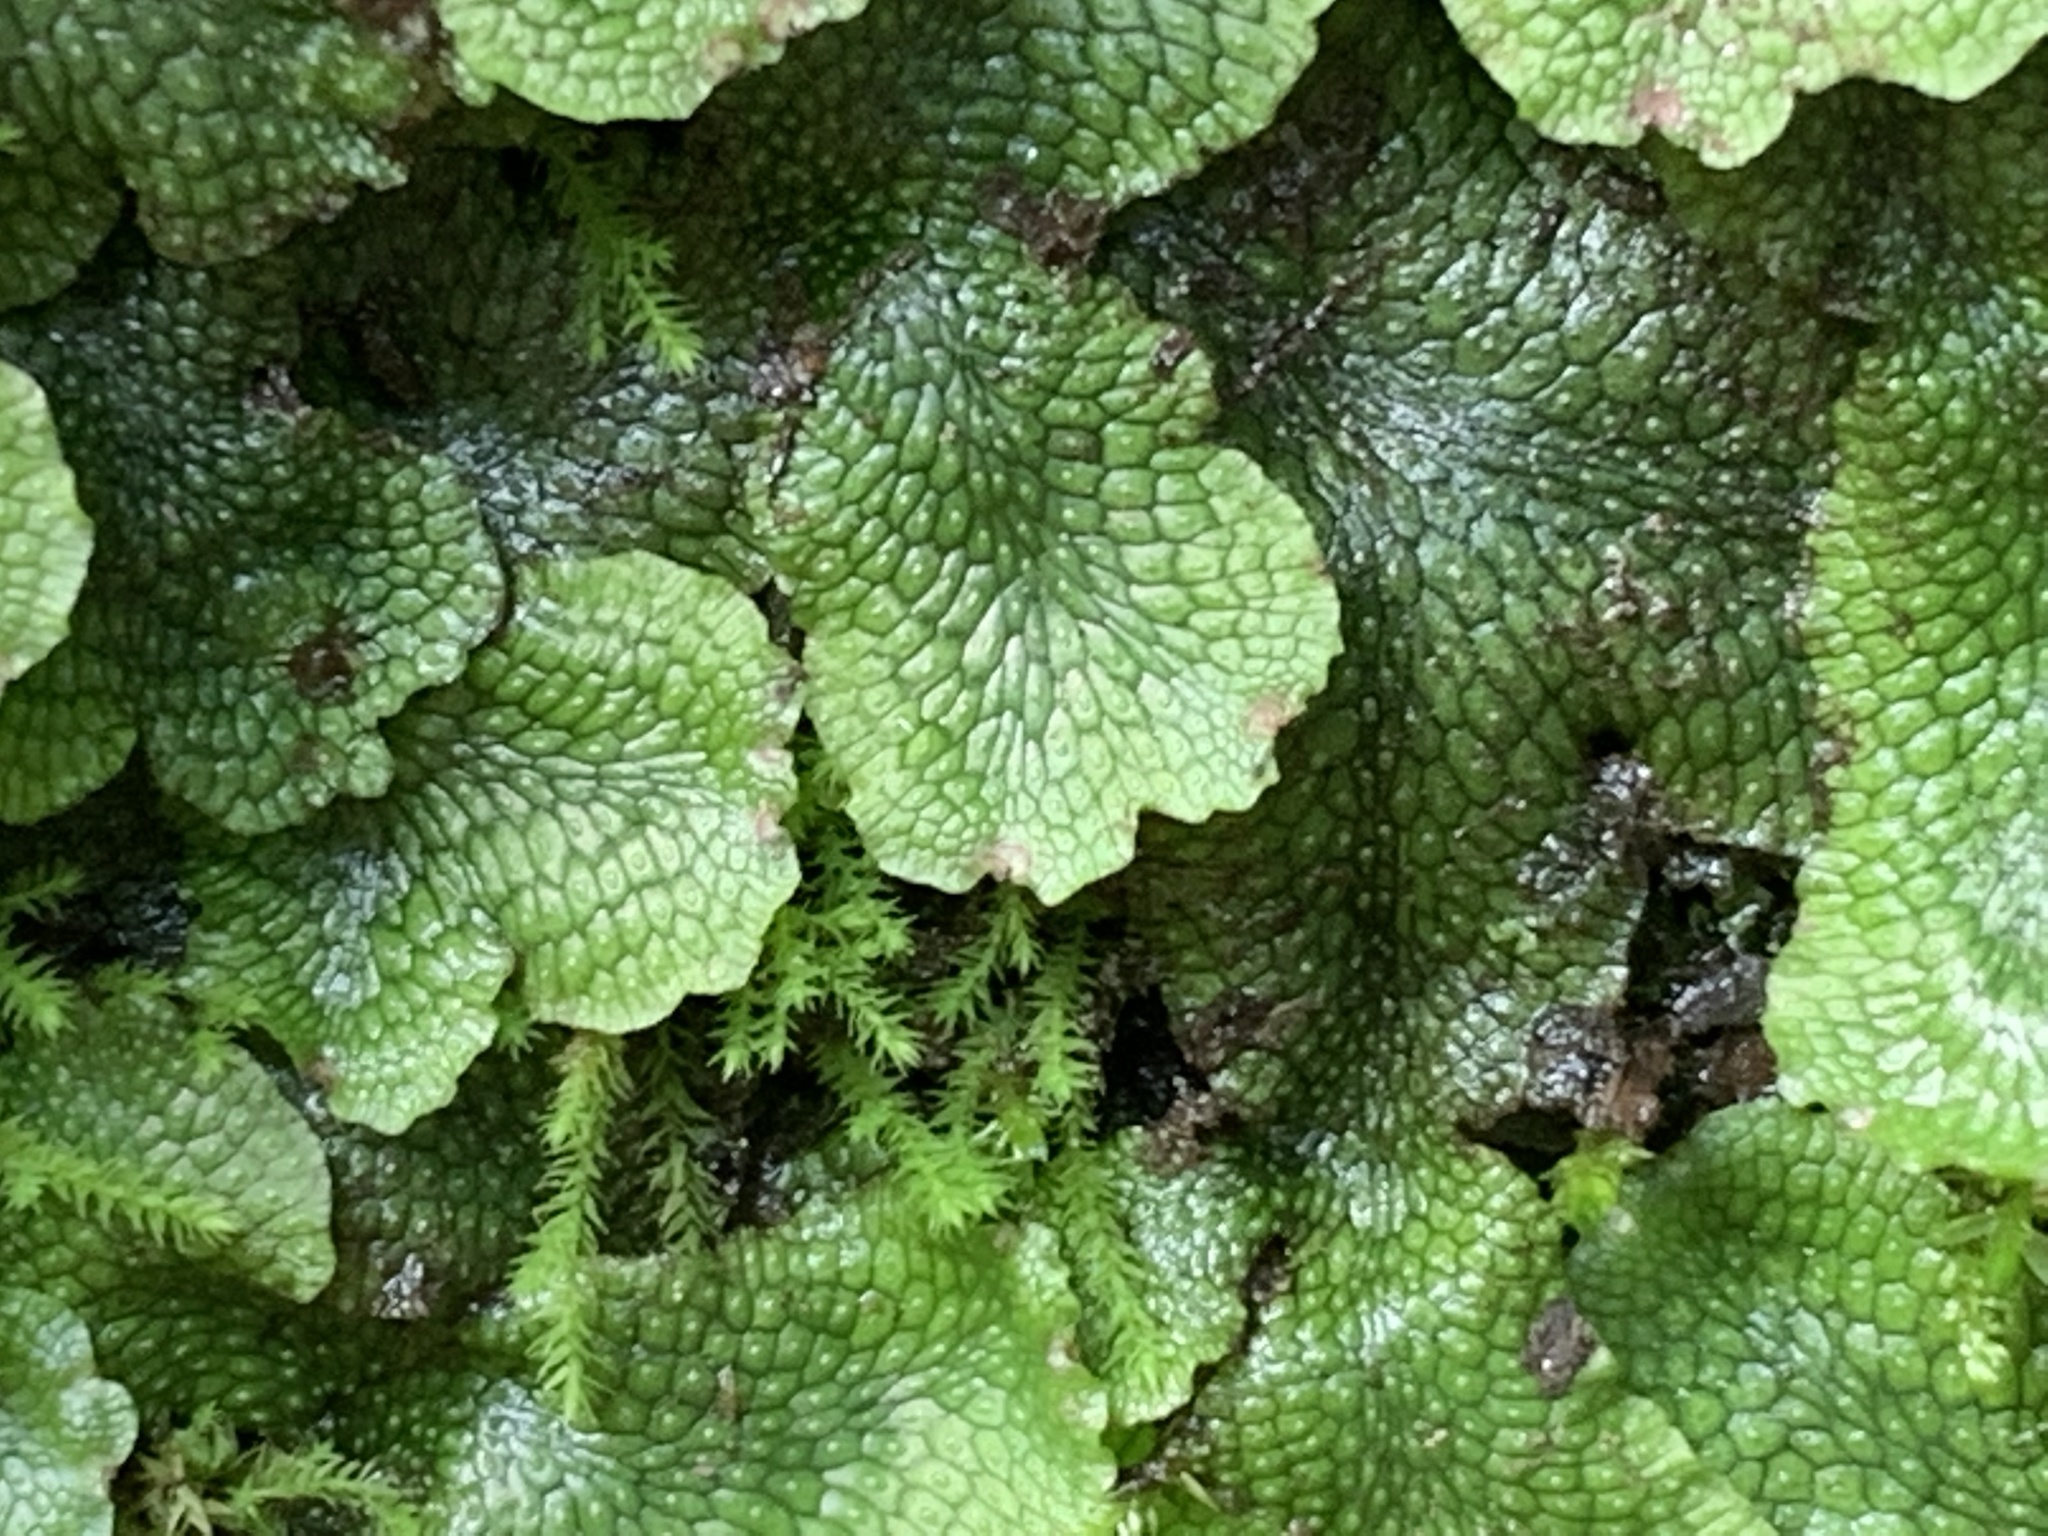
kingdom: Plantae
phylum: Marchantiophyta
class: Marchantiopsida
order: Marchantiales
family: Conocephalaceae
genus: Conocephalum
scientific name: Conocephalum salebrosum
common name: Cat-tongue liverwort
